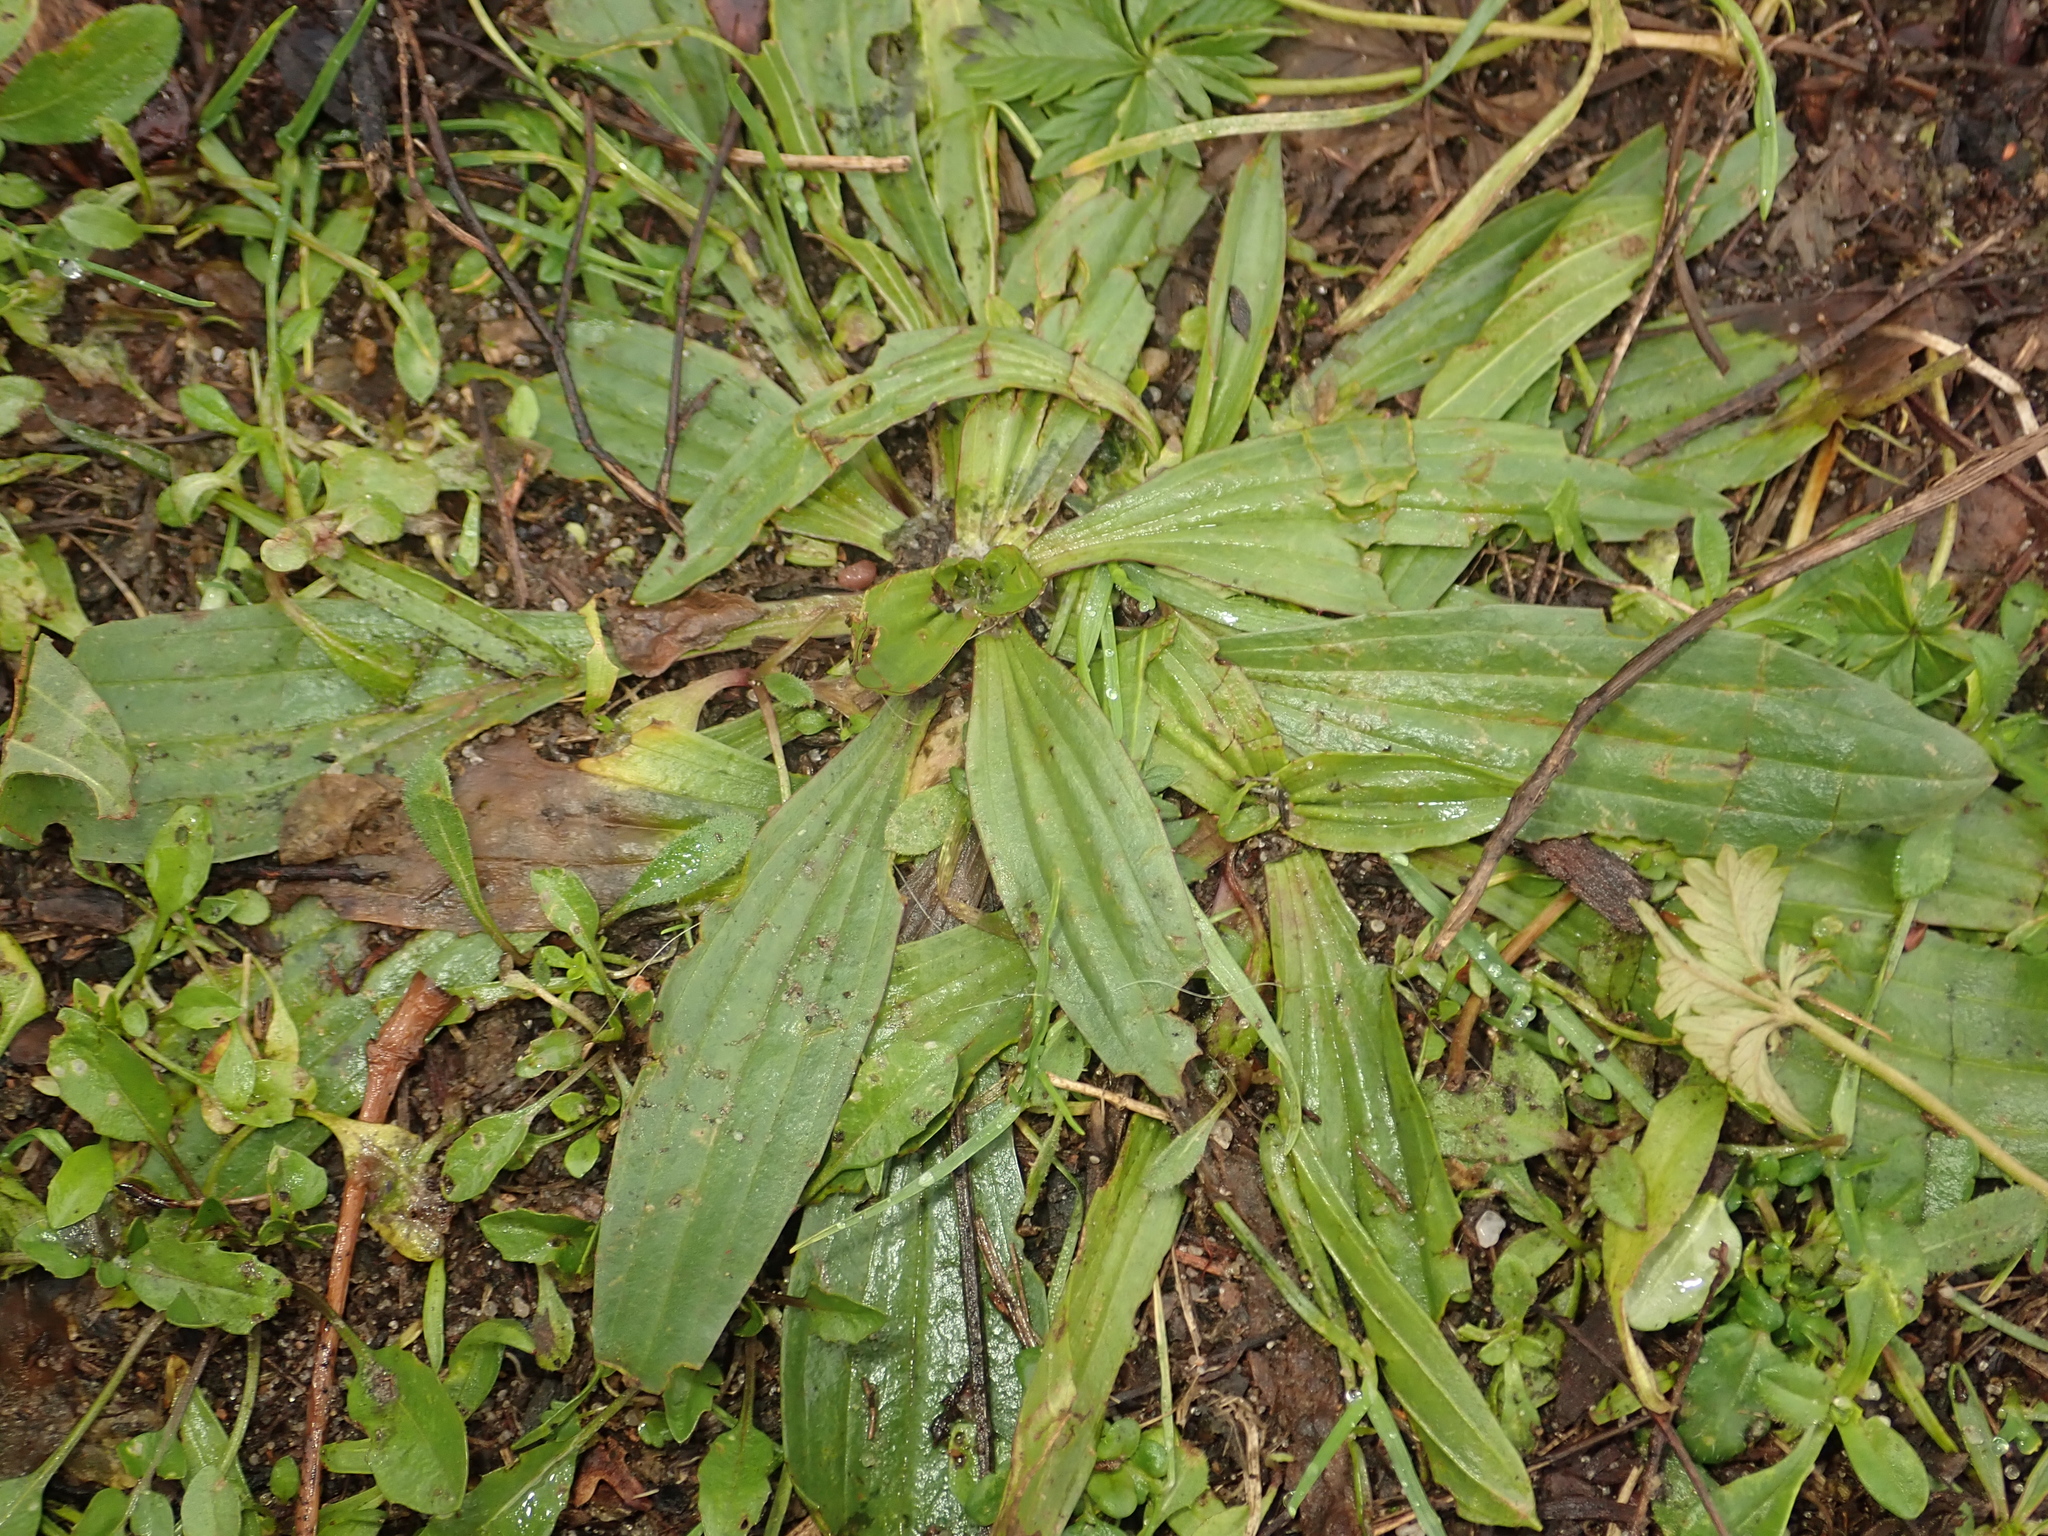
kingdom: Plantae
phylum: Tracheophyta
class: Magnoliopsida
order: Lamiales
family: Plantaginaceae
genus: Plantago
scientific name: Plantago lanceolata
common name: Ribwort plantain
